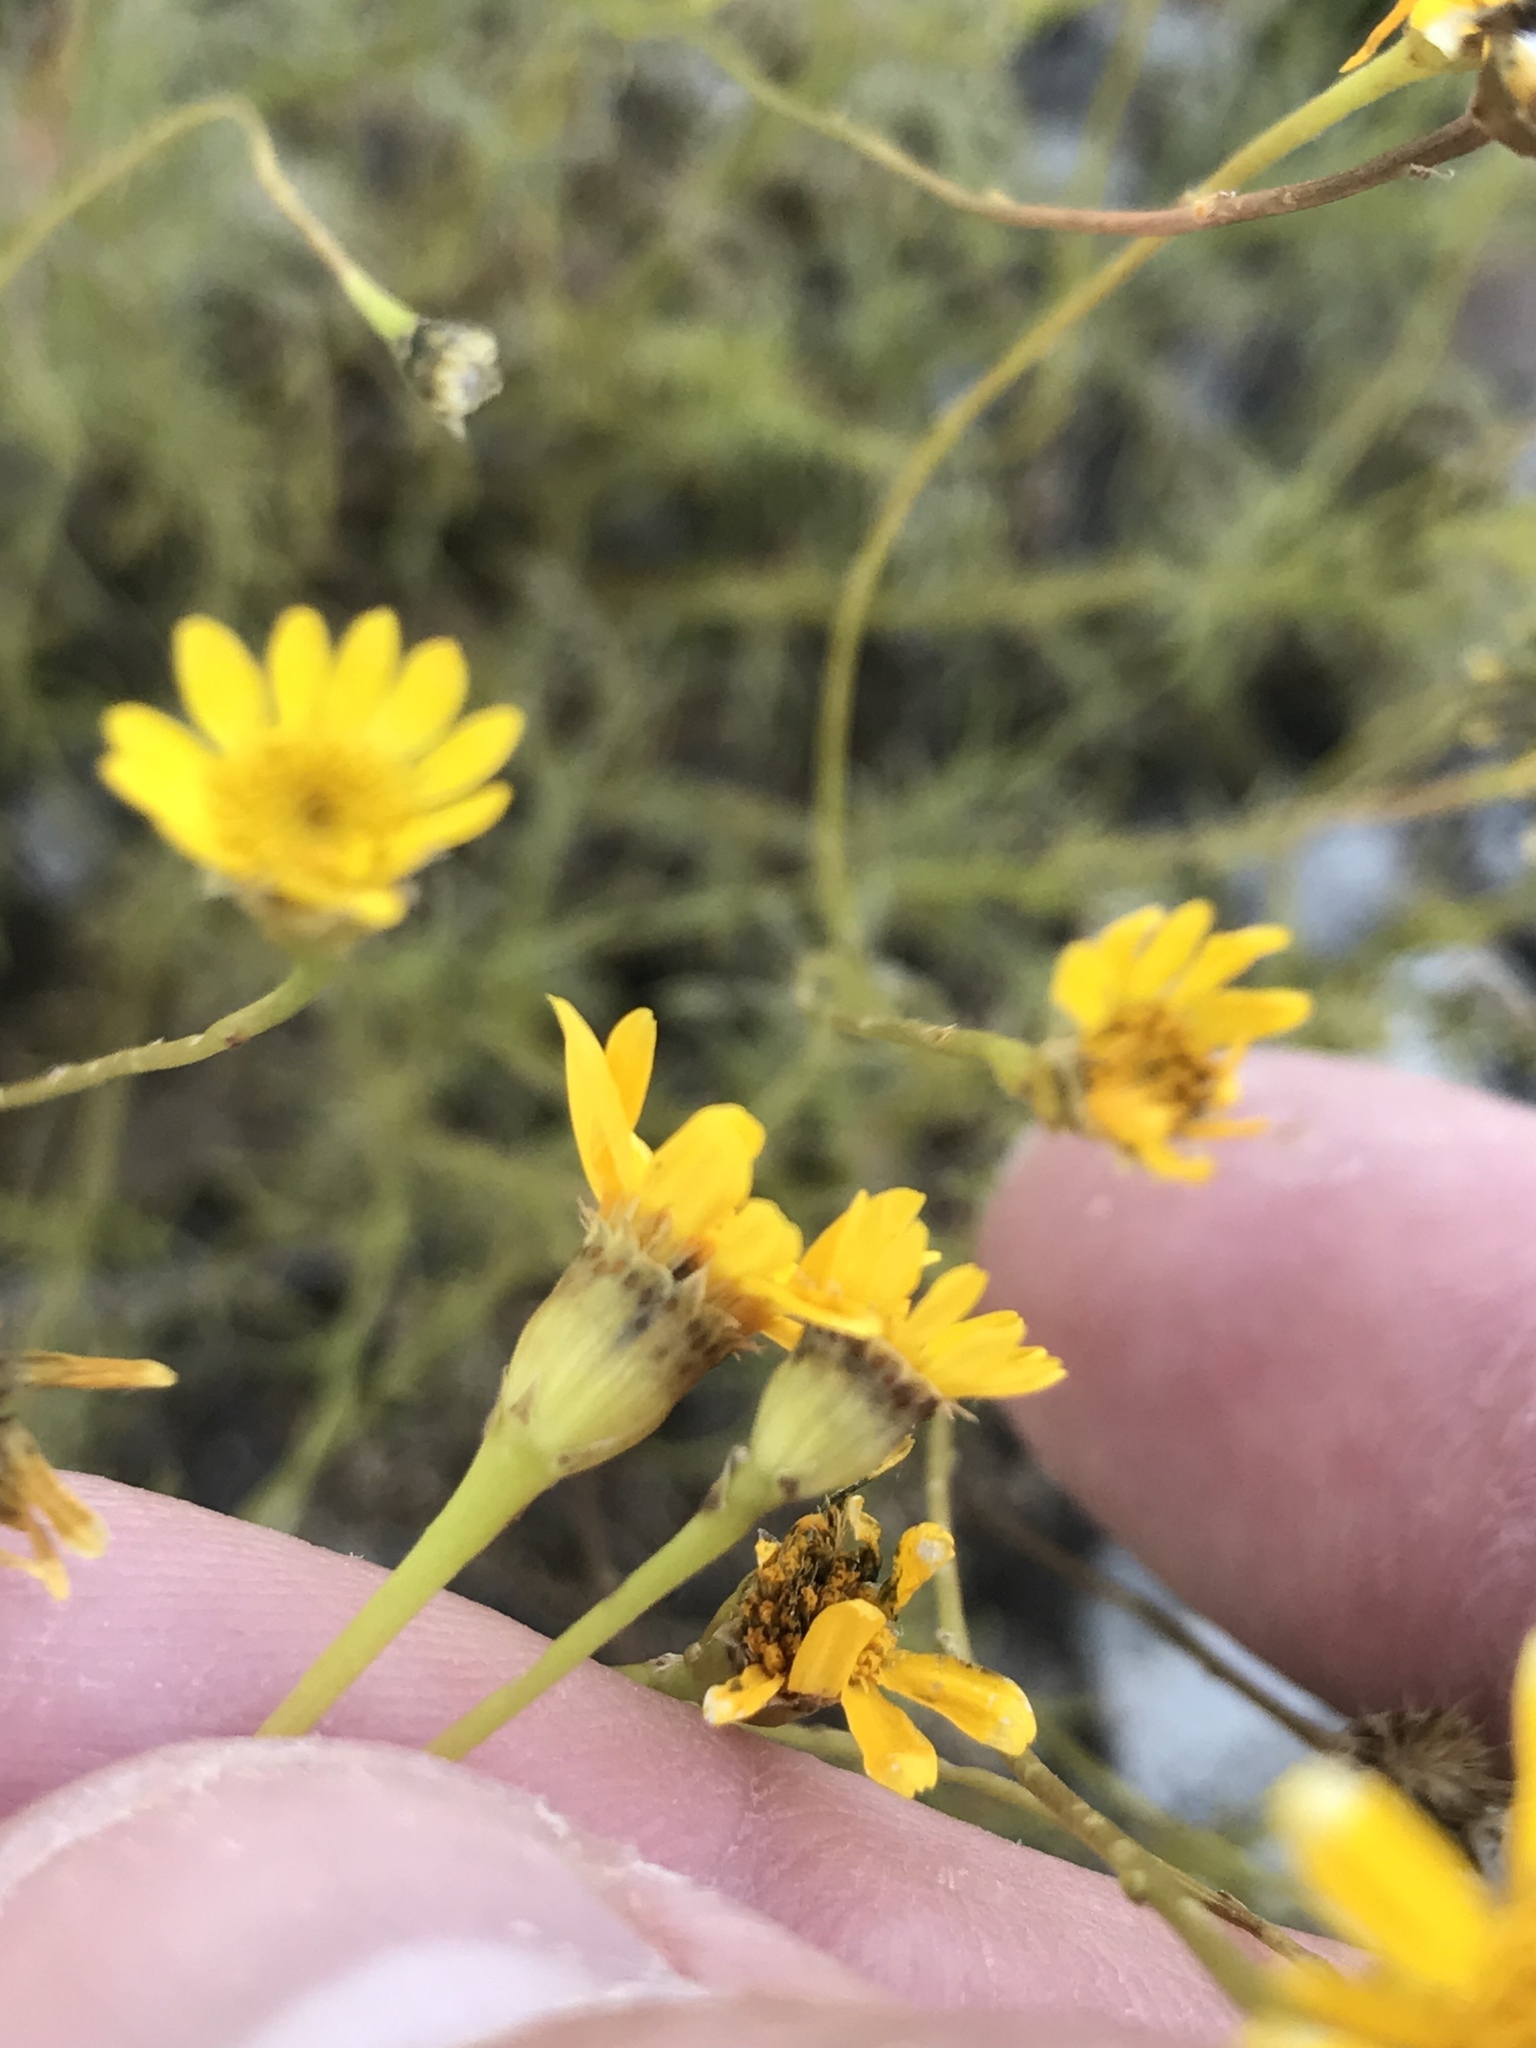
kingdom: Plantae
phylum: Tracheophyta
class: Magnoliopsida
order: Asterales
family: Asteraceae
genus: Thymophylla
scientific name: Thymophylla tenuiloba
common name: Dahlberg's daisy
